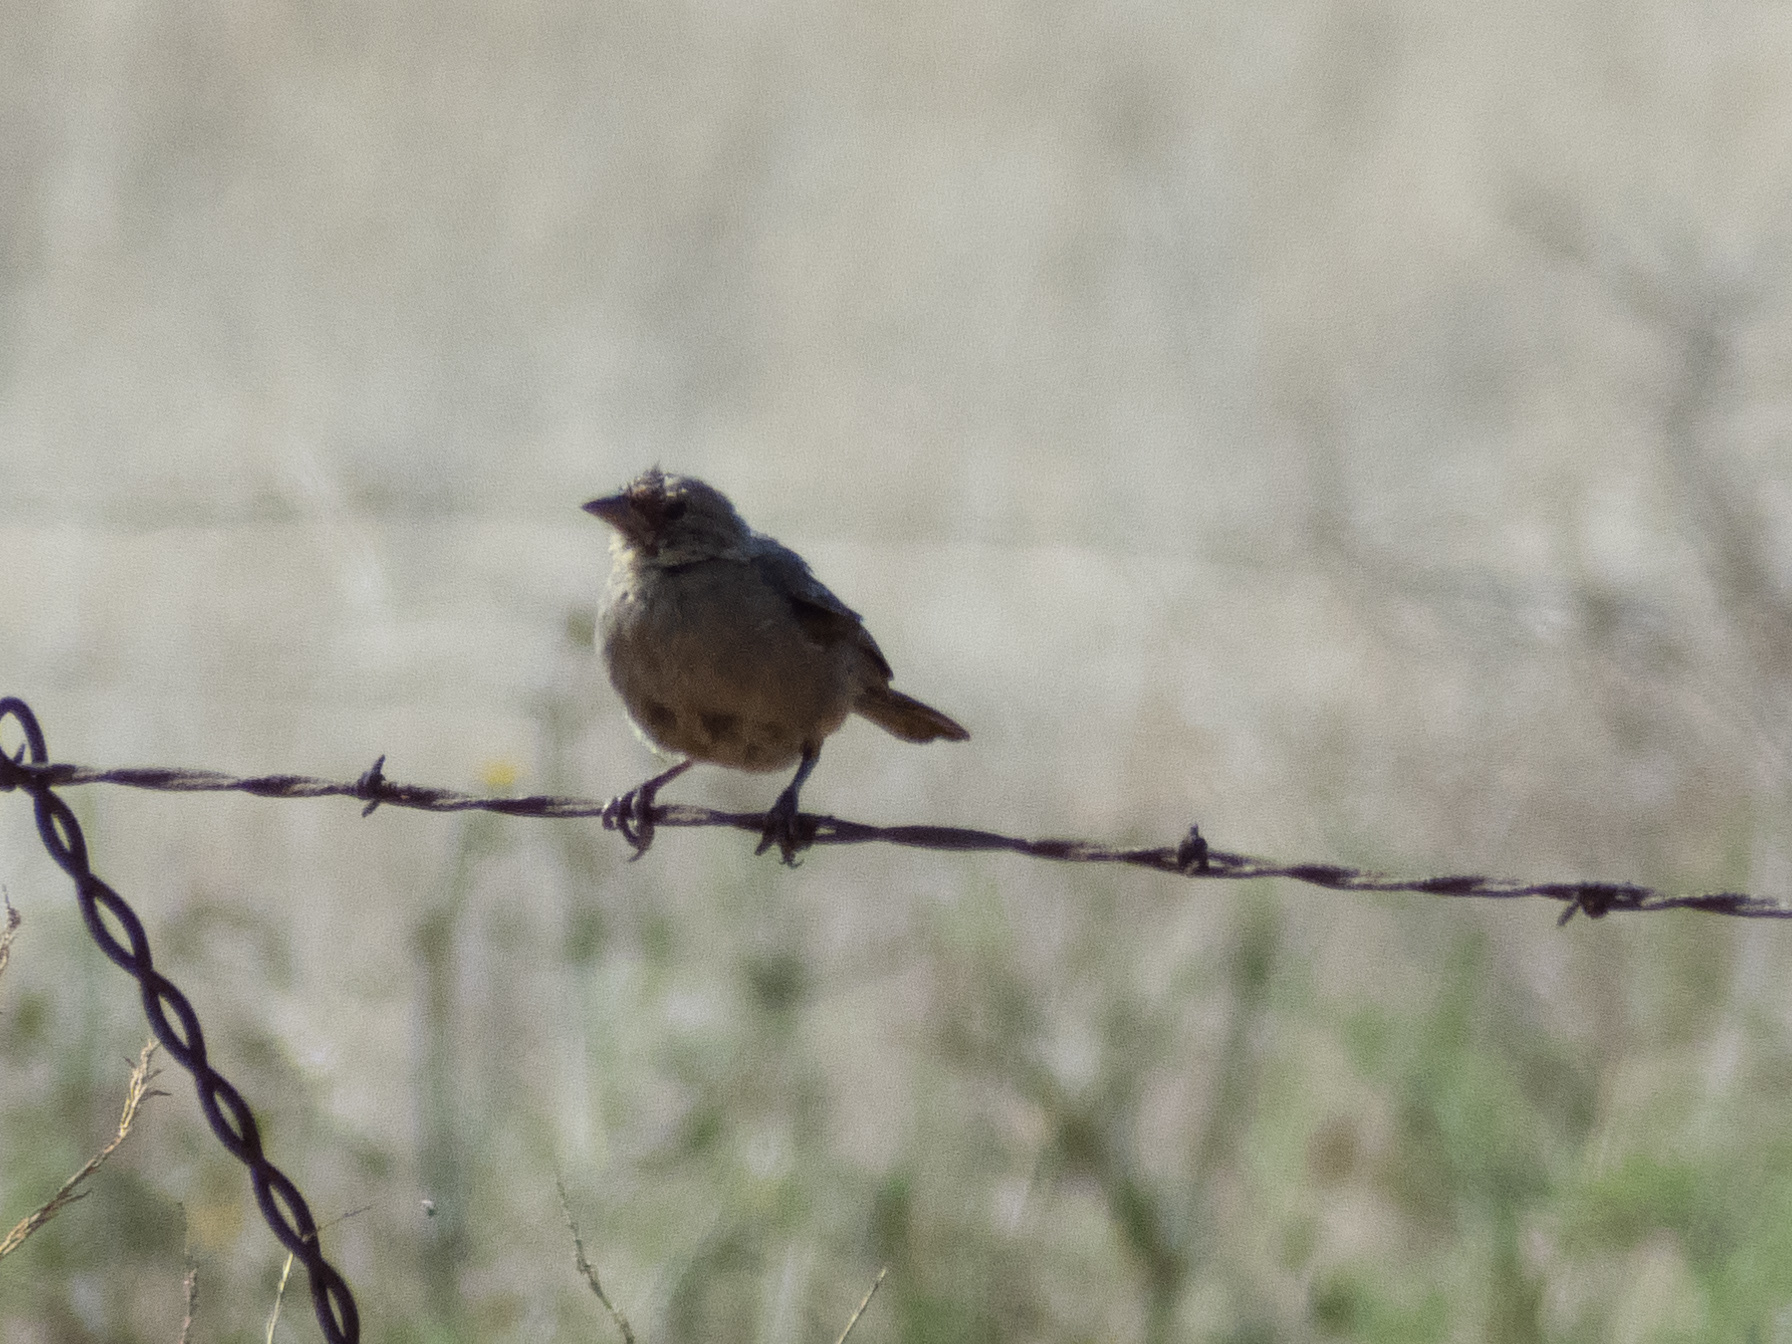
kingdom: Animalia
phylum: Chordata
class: Aves
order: Passeriformes
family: Icteridae
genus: Molothrus
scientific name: Molothrus ater
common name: Brown-headed cowbird
